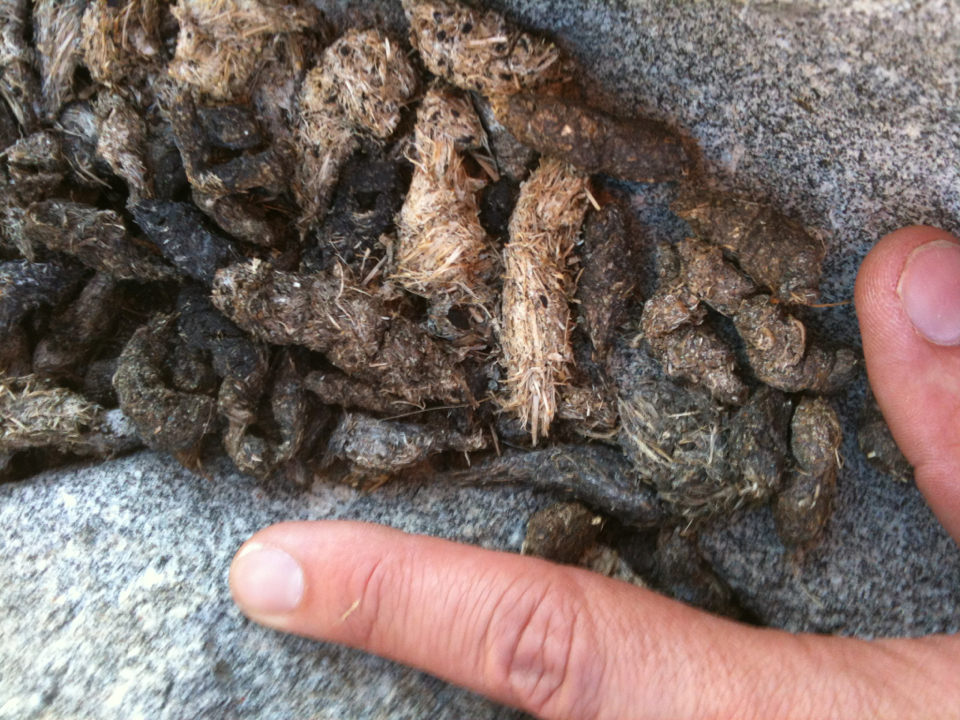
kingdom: Animalia
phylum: Chordata
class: Mammalia
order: Rodentia
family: Sciuridae
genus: Marmota
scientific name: Marmota flaviventris
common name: Yellow-bellied marmot
